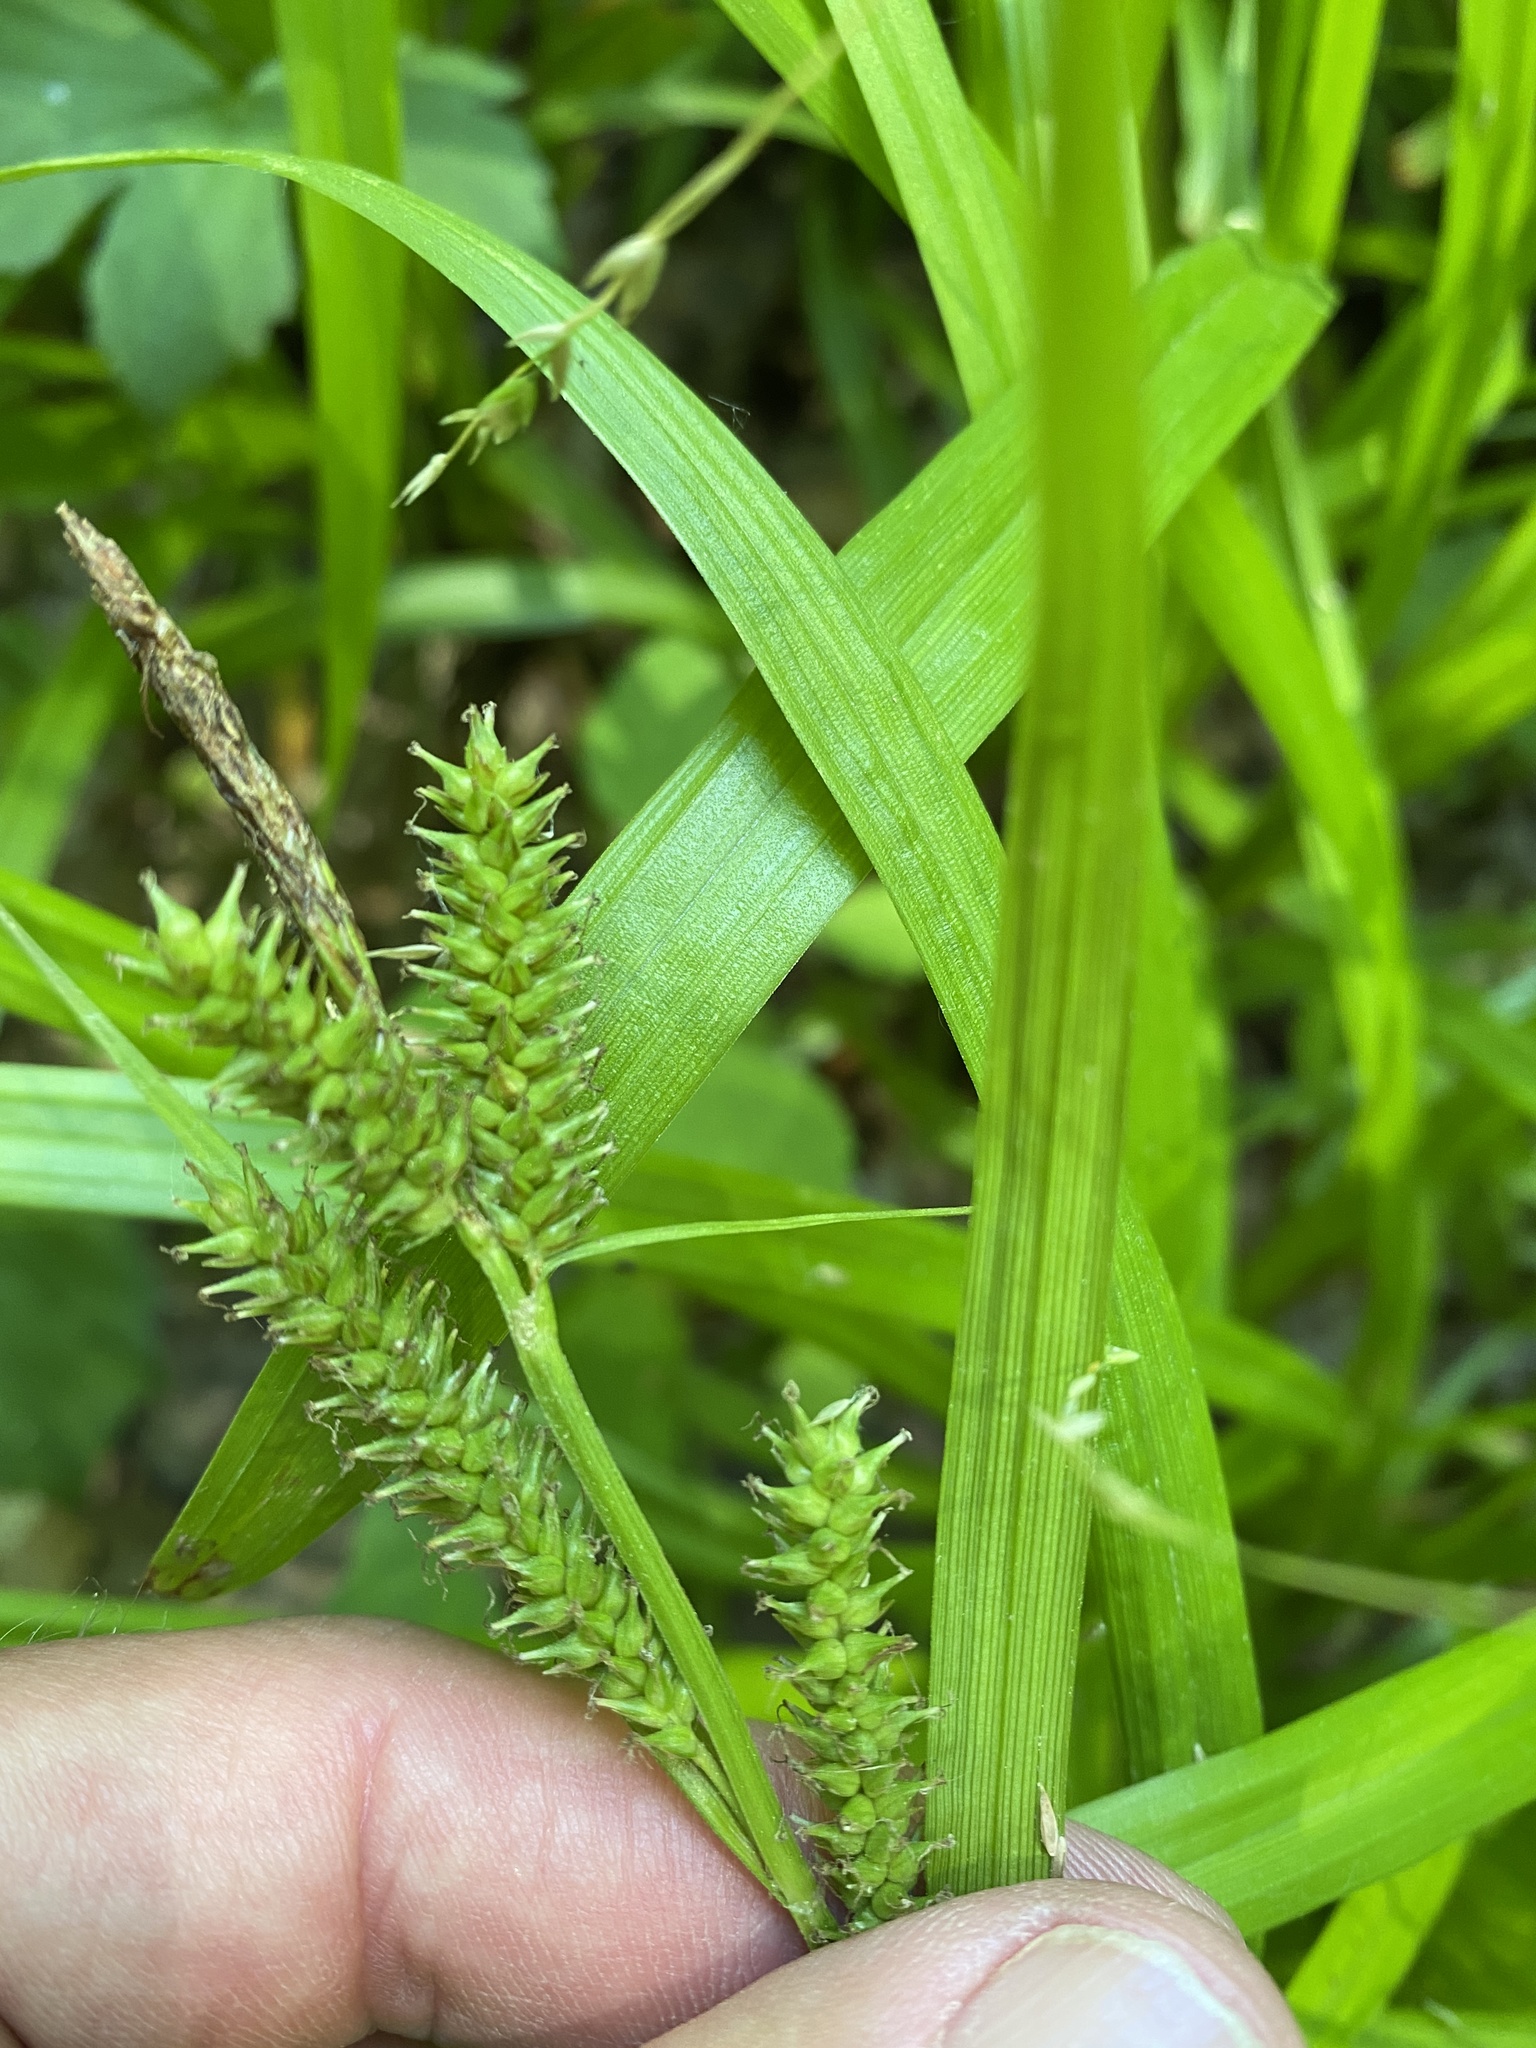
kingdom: Plantae
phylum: Tracheophyta
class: Liliopsida
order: Poales
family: Cyperaceae
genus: Carex
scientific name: Carex scabrata
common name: Eastern rough sedge
